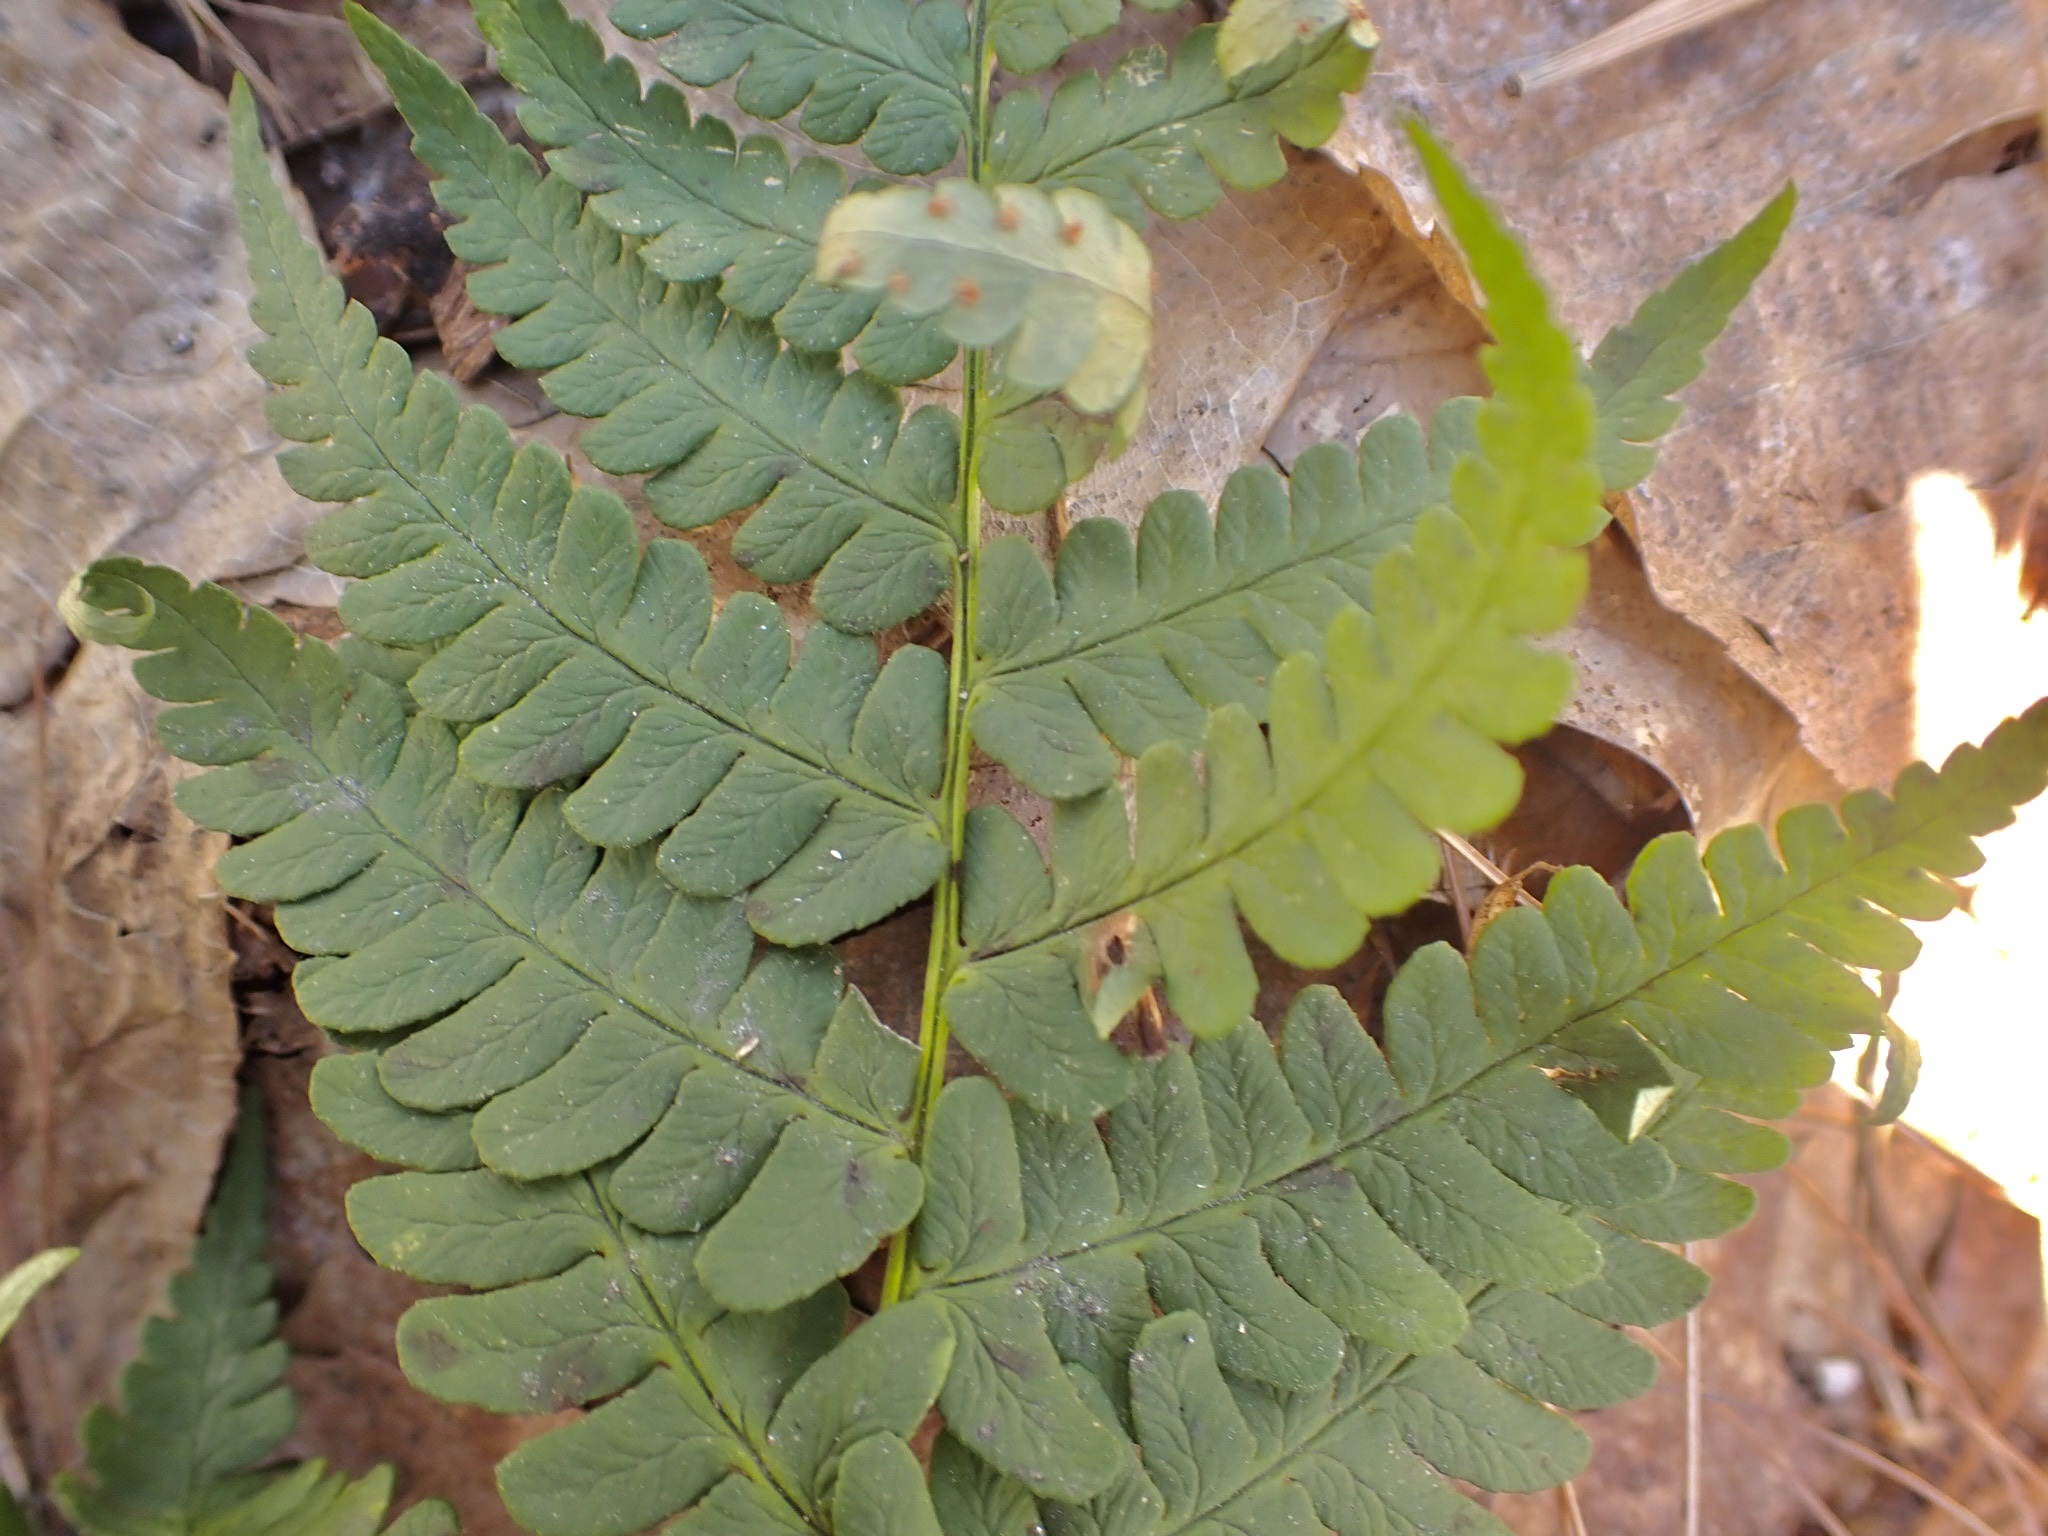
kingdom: Plantae
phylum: Tracheophyta
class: Polypodiopsida
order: Polypodiales
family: Dryopteridaceae
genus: Dryopteris
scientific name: Dryopteris marginalis
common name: Marginal wood fern
